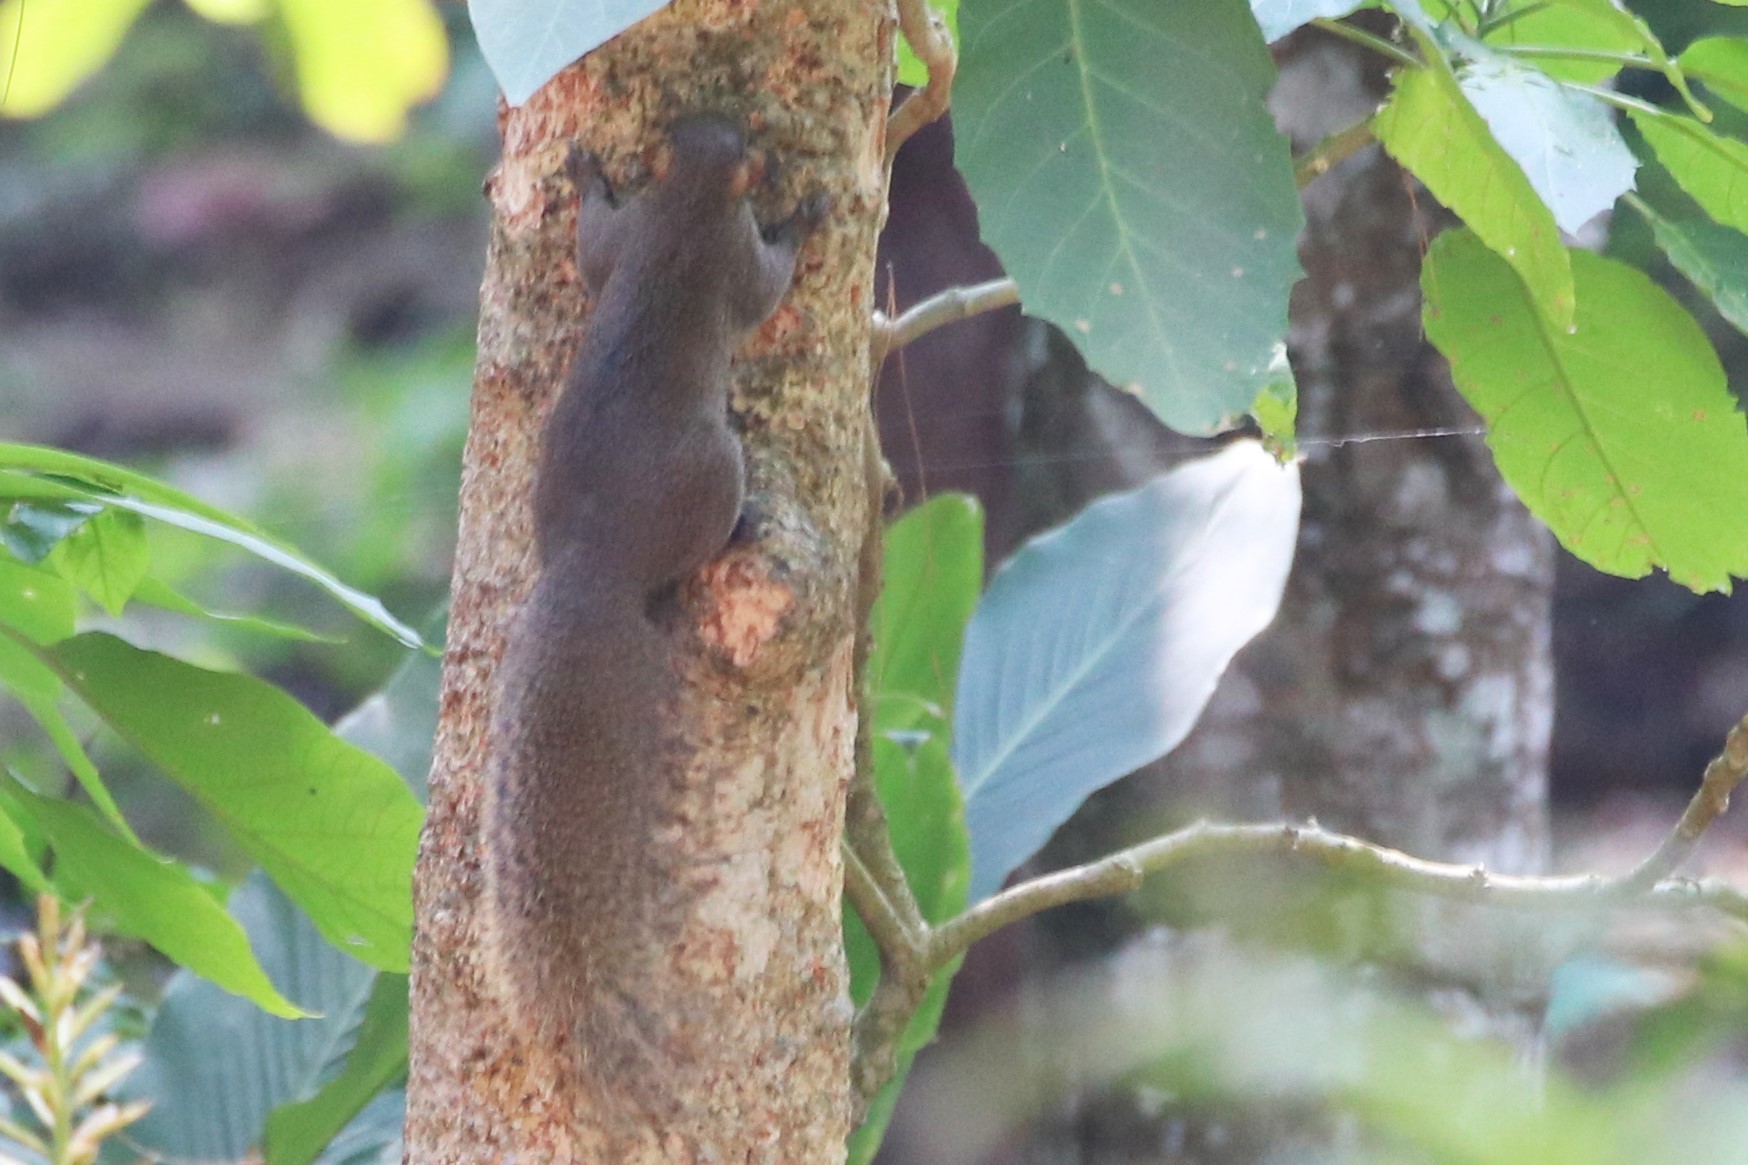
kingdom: Animalia
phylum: Chordata
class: Mammalia
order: Rodentia
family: Sciuridae
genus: Callosciurus
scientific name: Callosciurus erythraeus
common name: Pallas's squirrel
